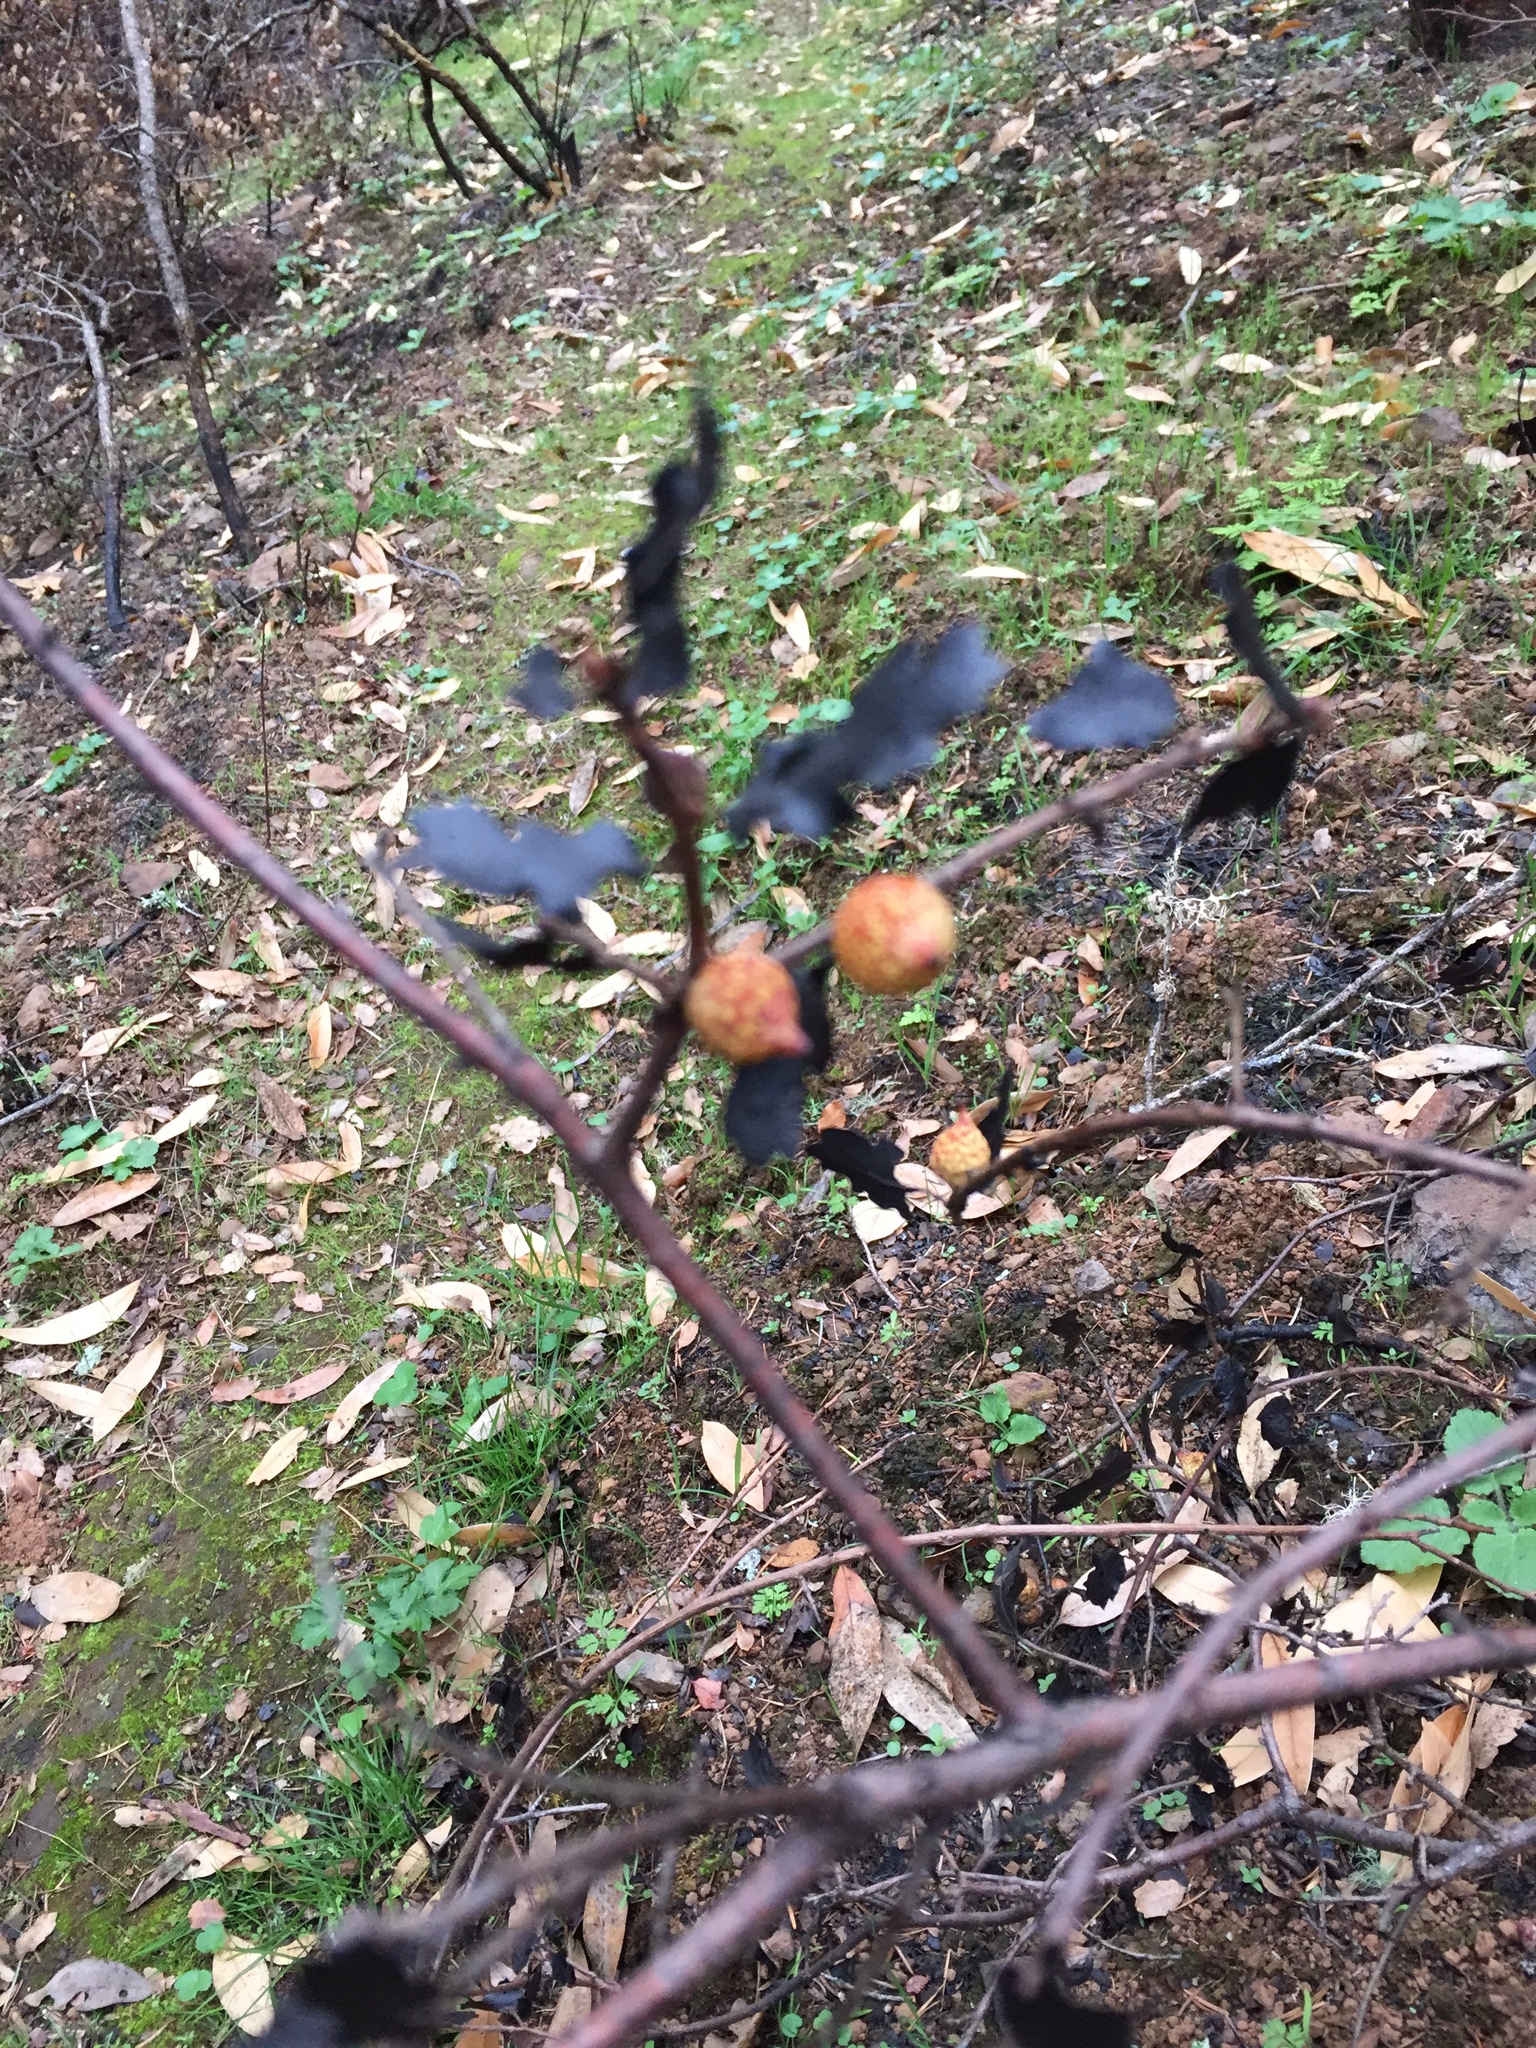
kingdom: Animalia
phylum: Arthropoda
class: Insecta
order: Hymenoptera
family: Cynipidae
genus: Burnettweldia
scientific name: Burnettweldia
